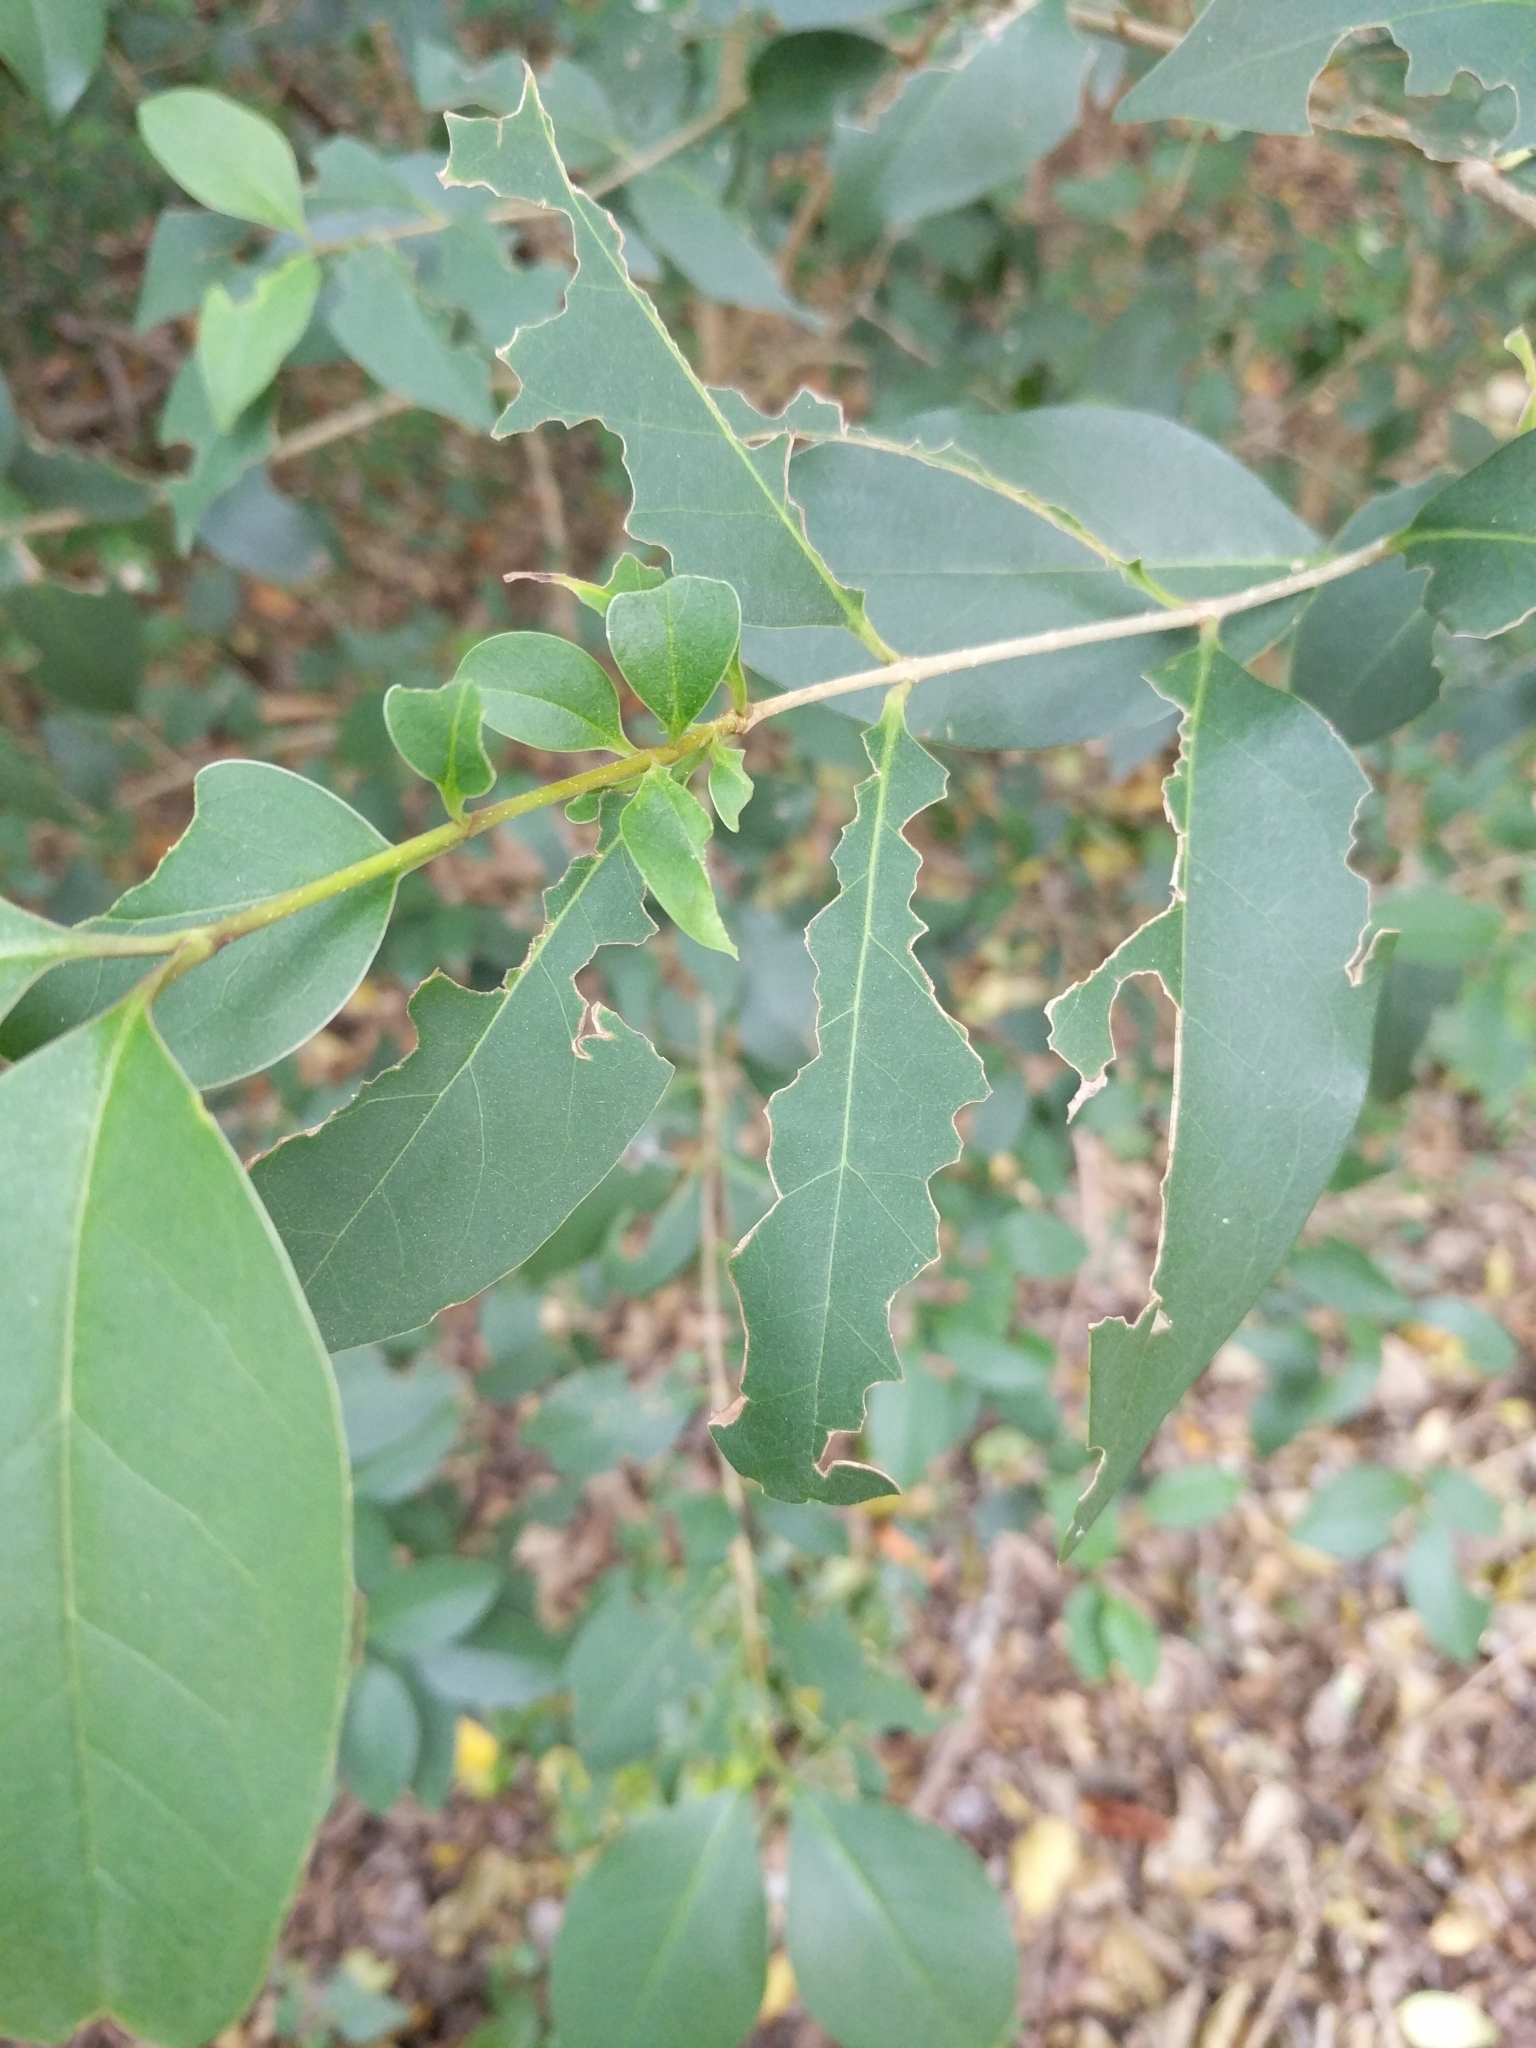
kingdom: Plantae
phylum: Tracheophyta
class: Magnoliopsida
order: Lamiales
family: Oleaceae
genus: Ligustrum
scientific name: Ligustrum lucidum
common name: Glossy privet
